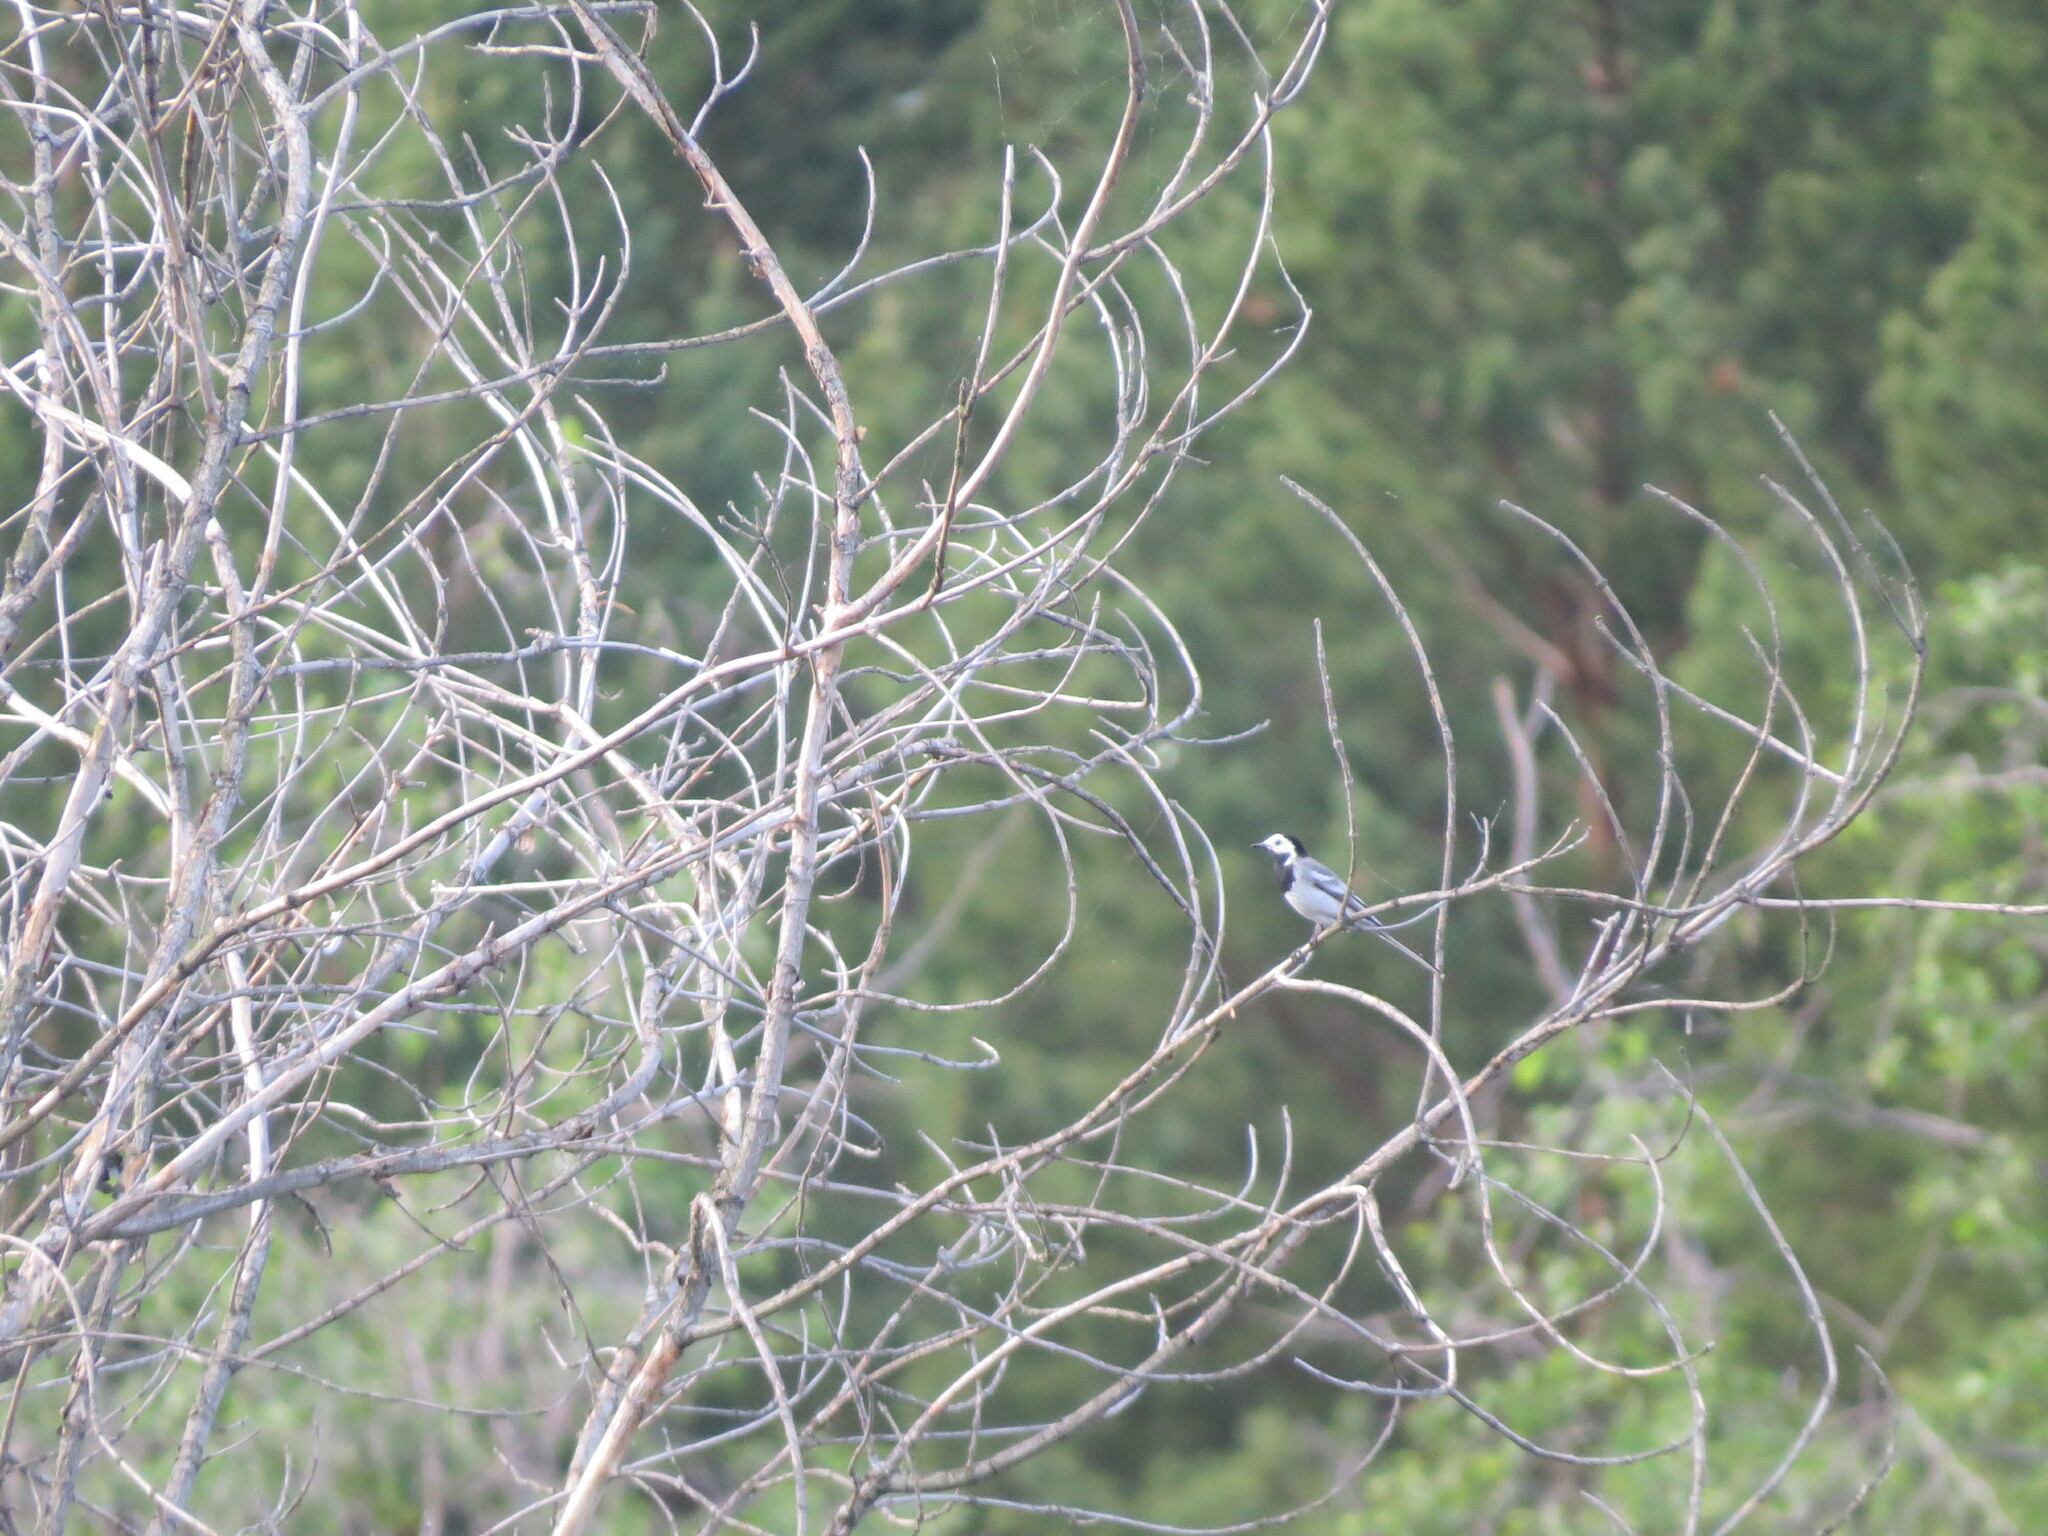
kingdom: Animalia
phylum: Chordata
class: Aves
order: Passeriformes
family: Motacillidae
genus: Motacilla
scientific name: Motacilla alba
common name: White wagtail
